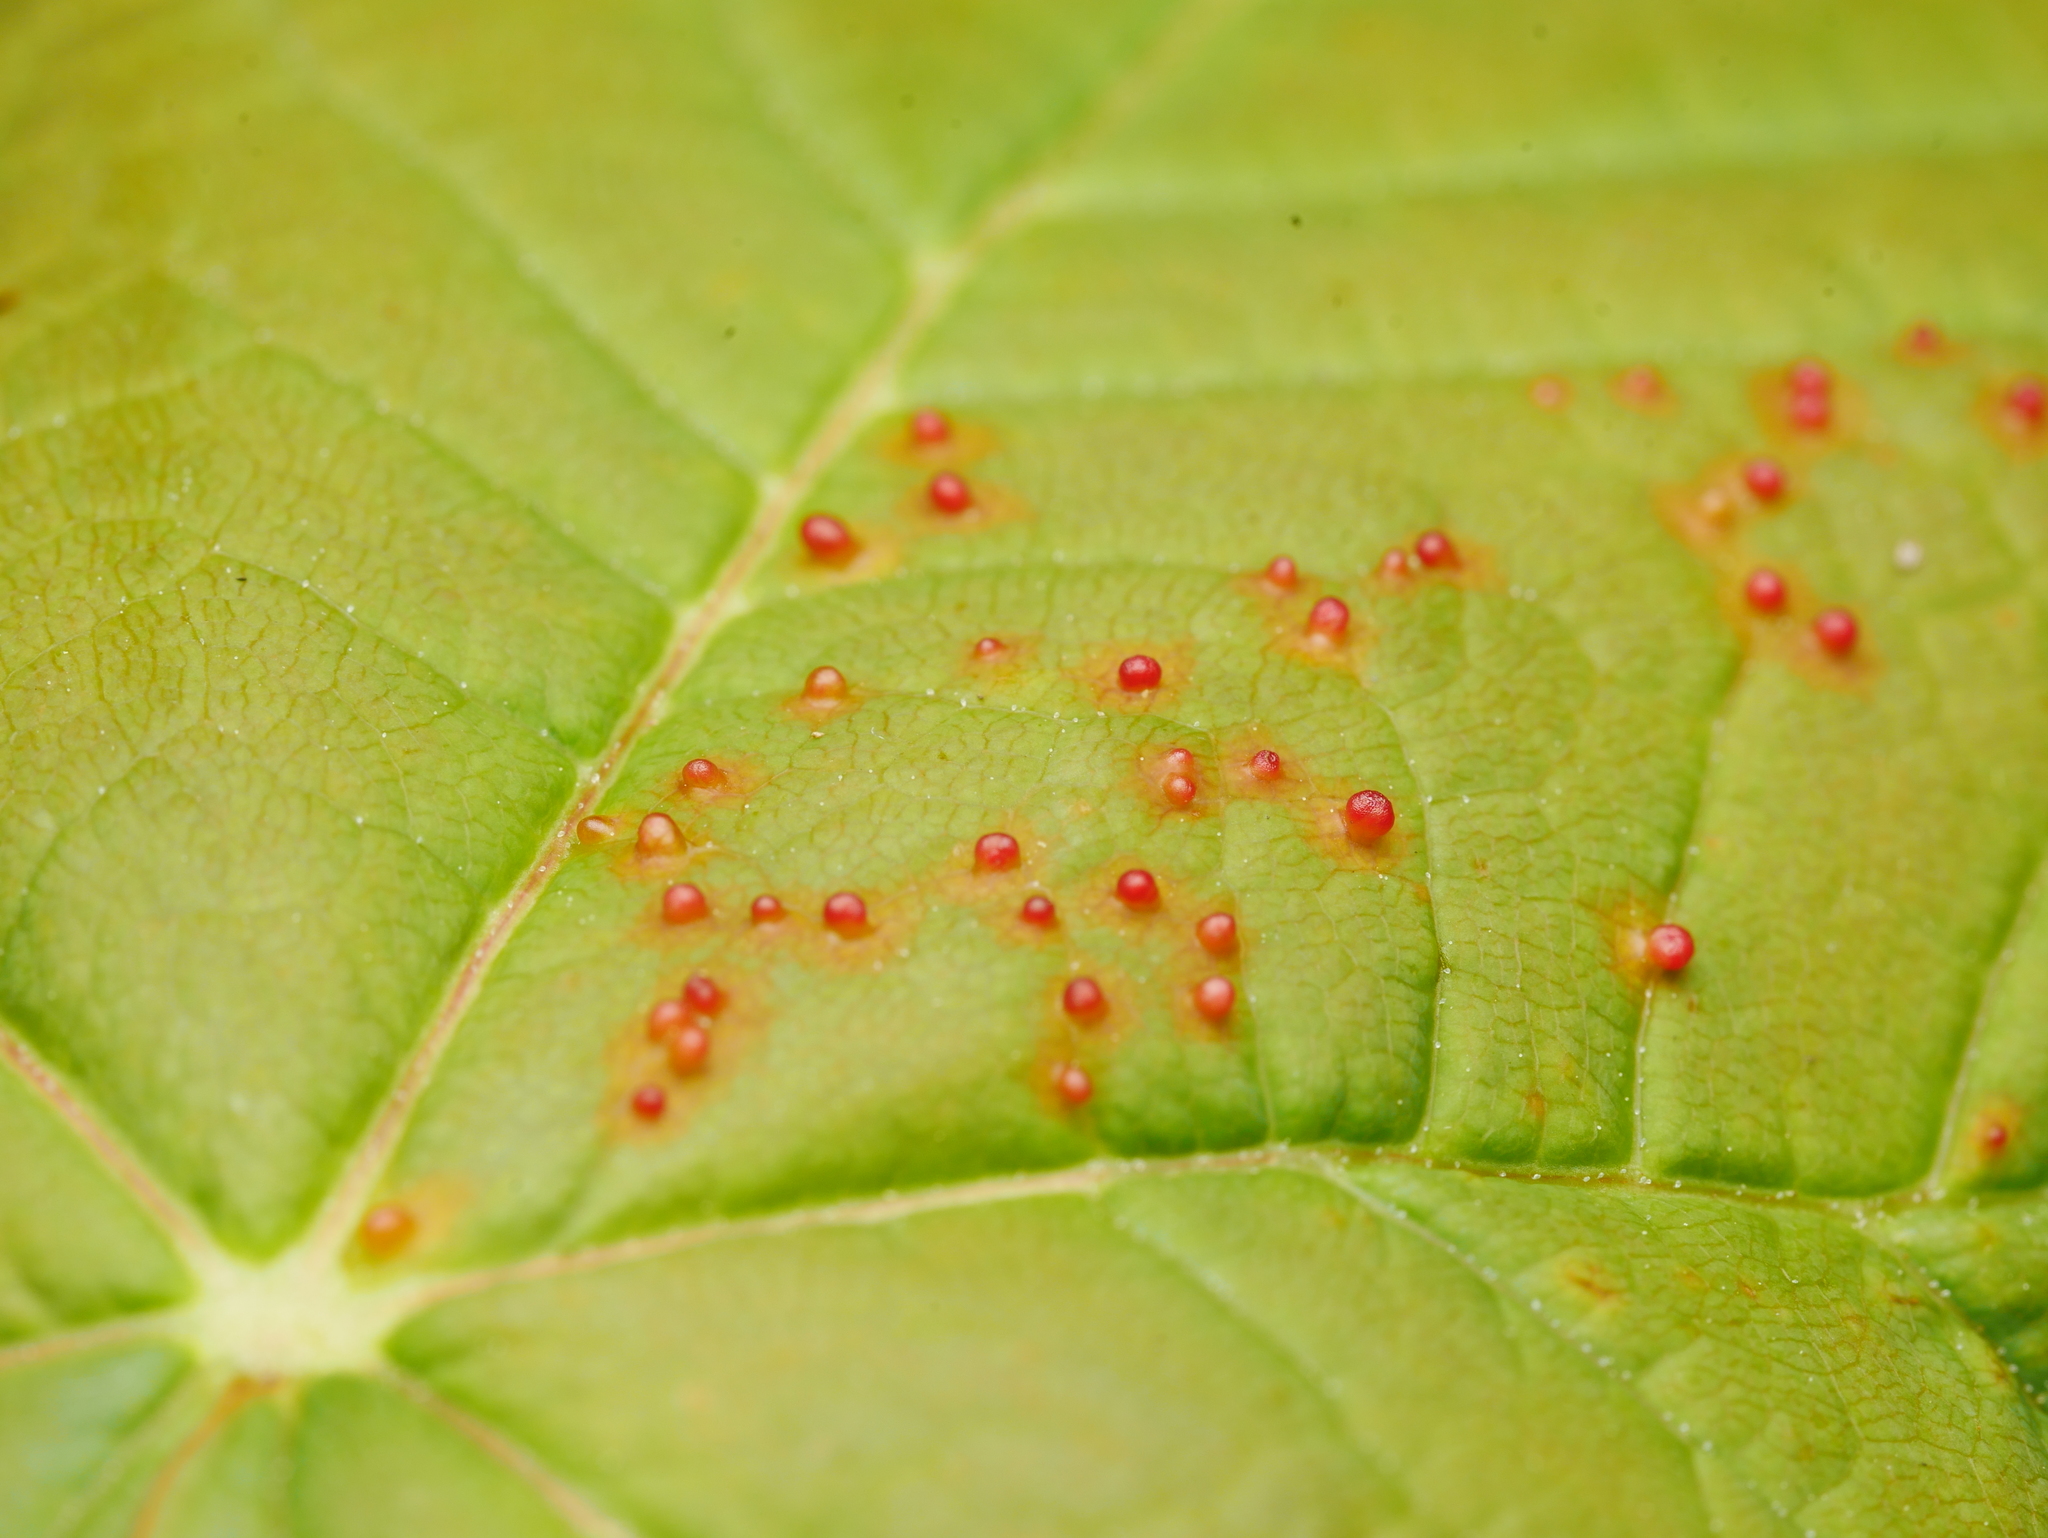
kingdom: Animalia
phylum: Arthropoda
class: Arachnida
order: Trombidiformes
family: Eriophyidae
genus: Aceria
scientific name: Aceria cephaloneus
